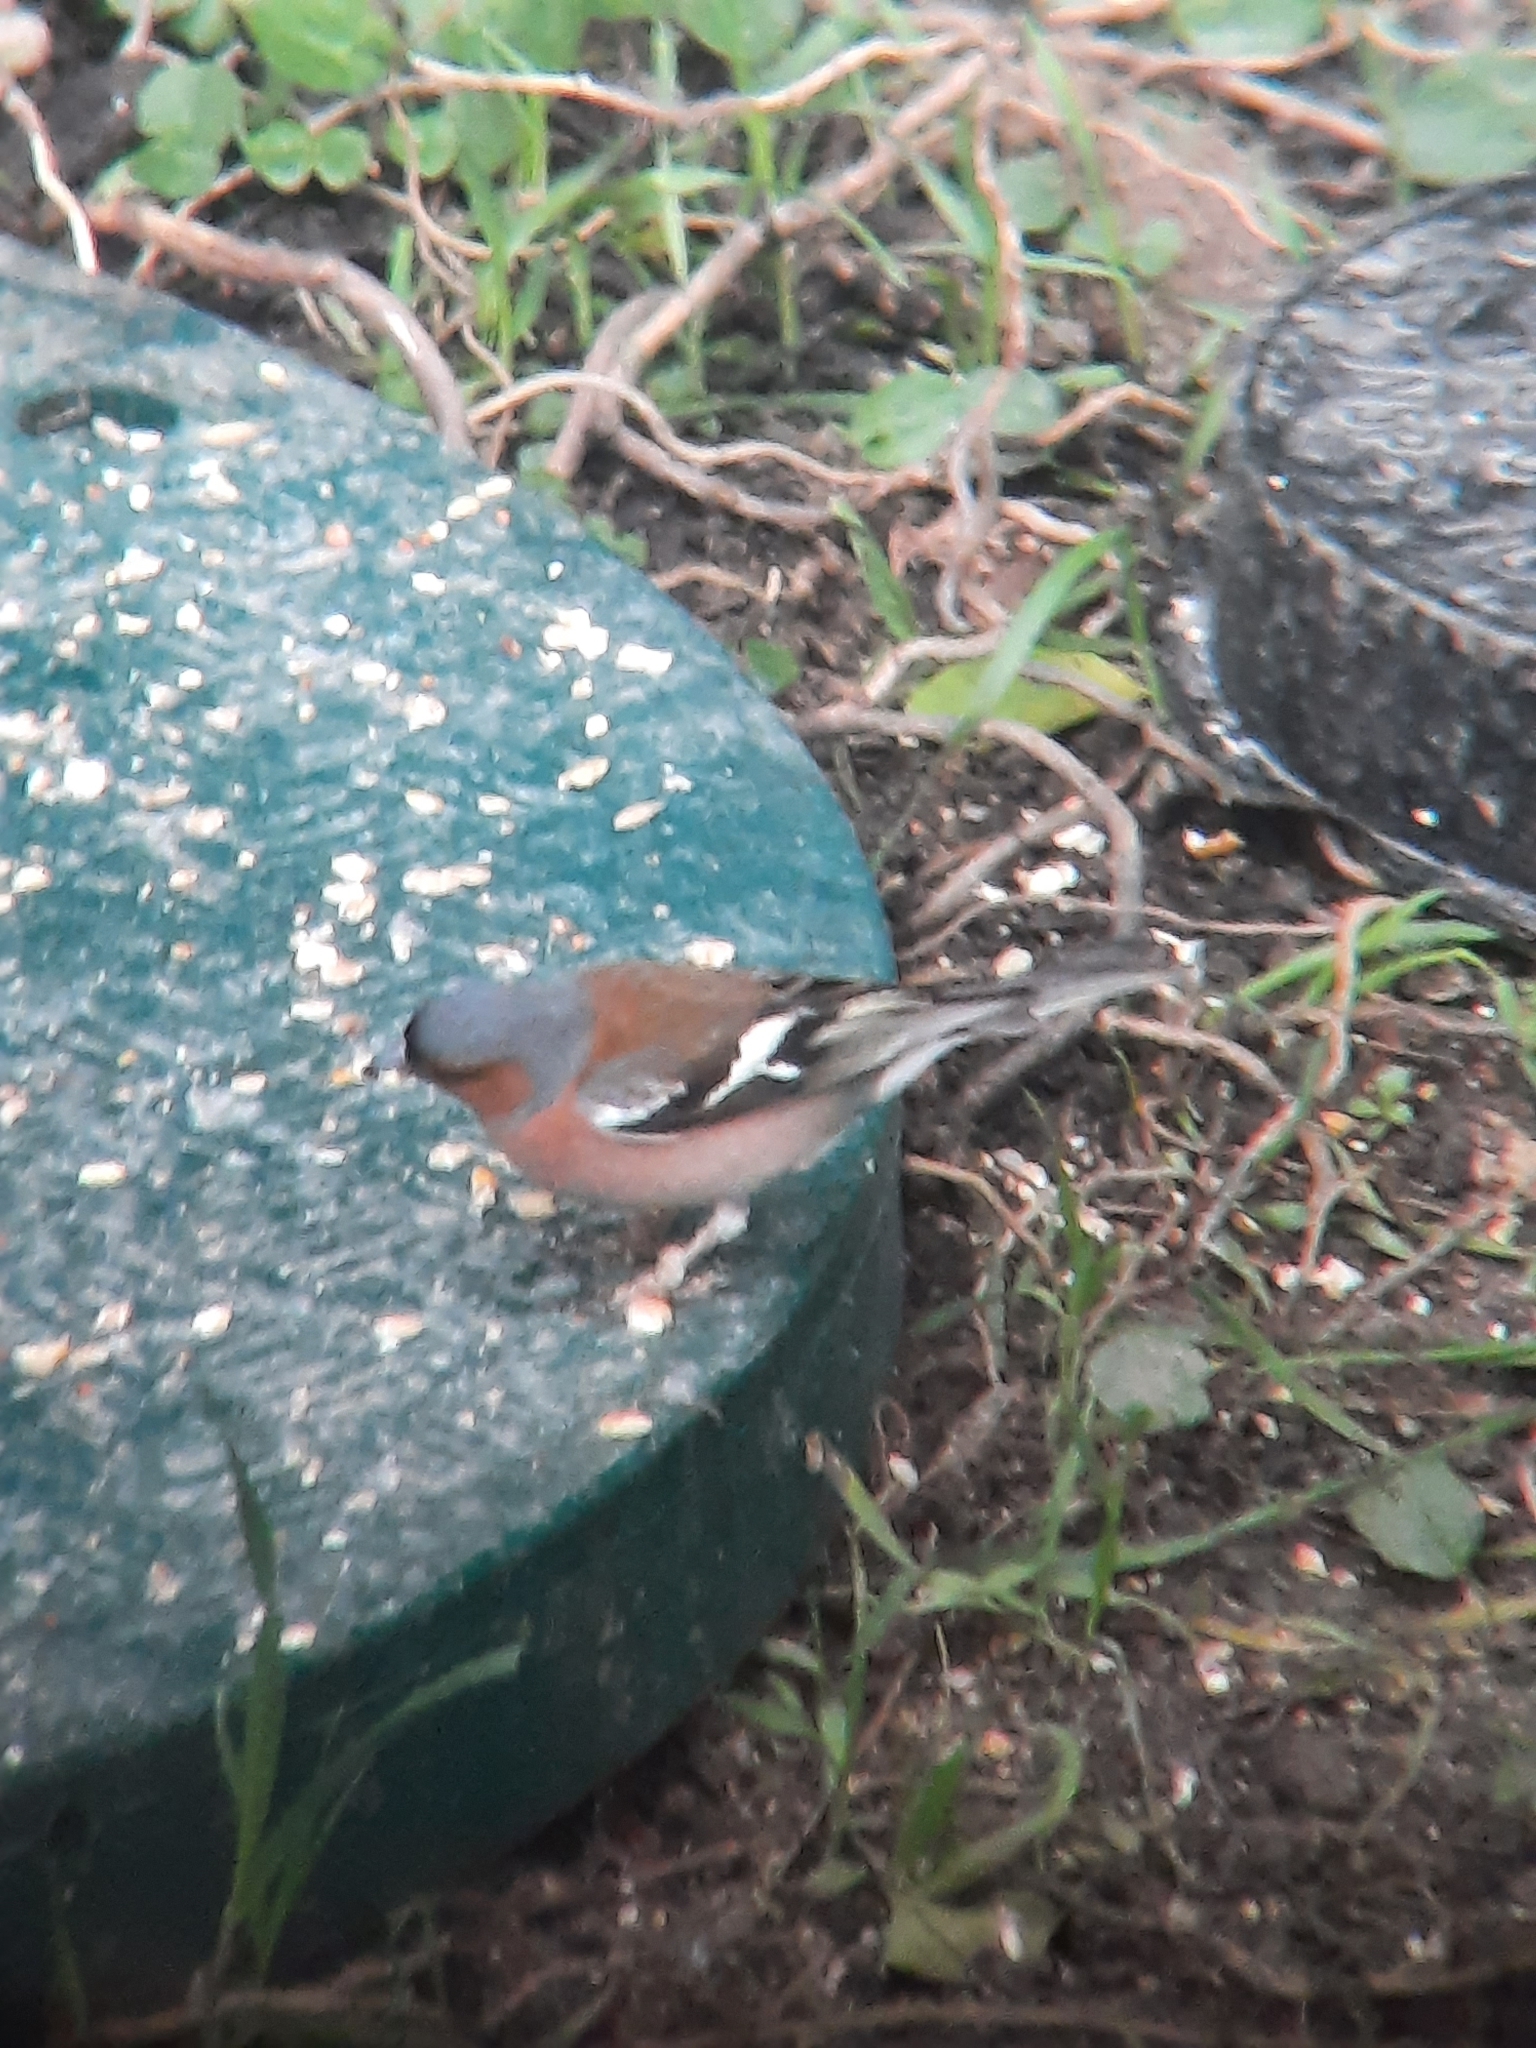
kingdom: Animalia
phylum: Chordata
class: Aves
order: Passeriformes
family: Fringillidae
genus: Fringilla
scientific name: Fringilla coelebs
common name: Common chaffinch
